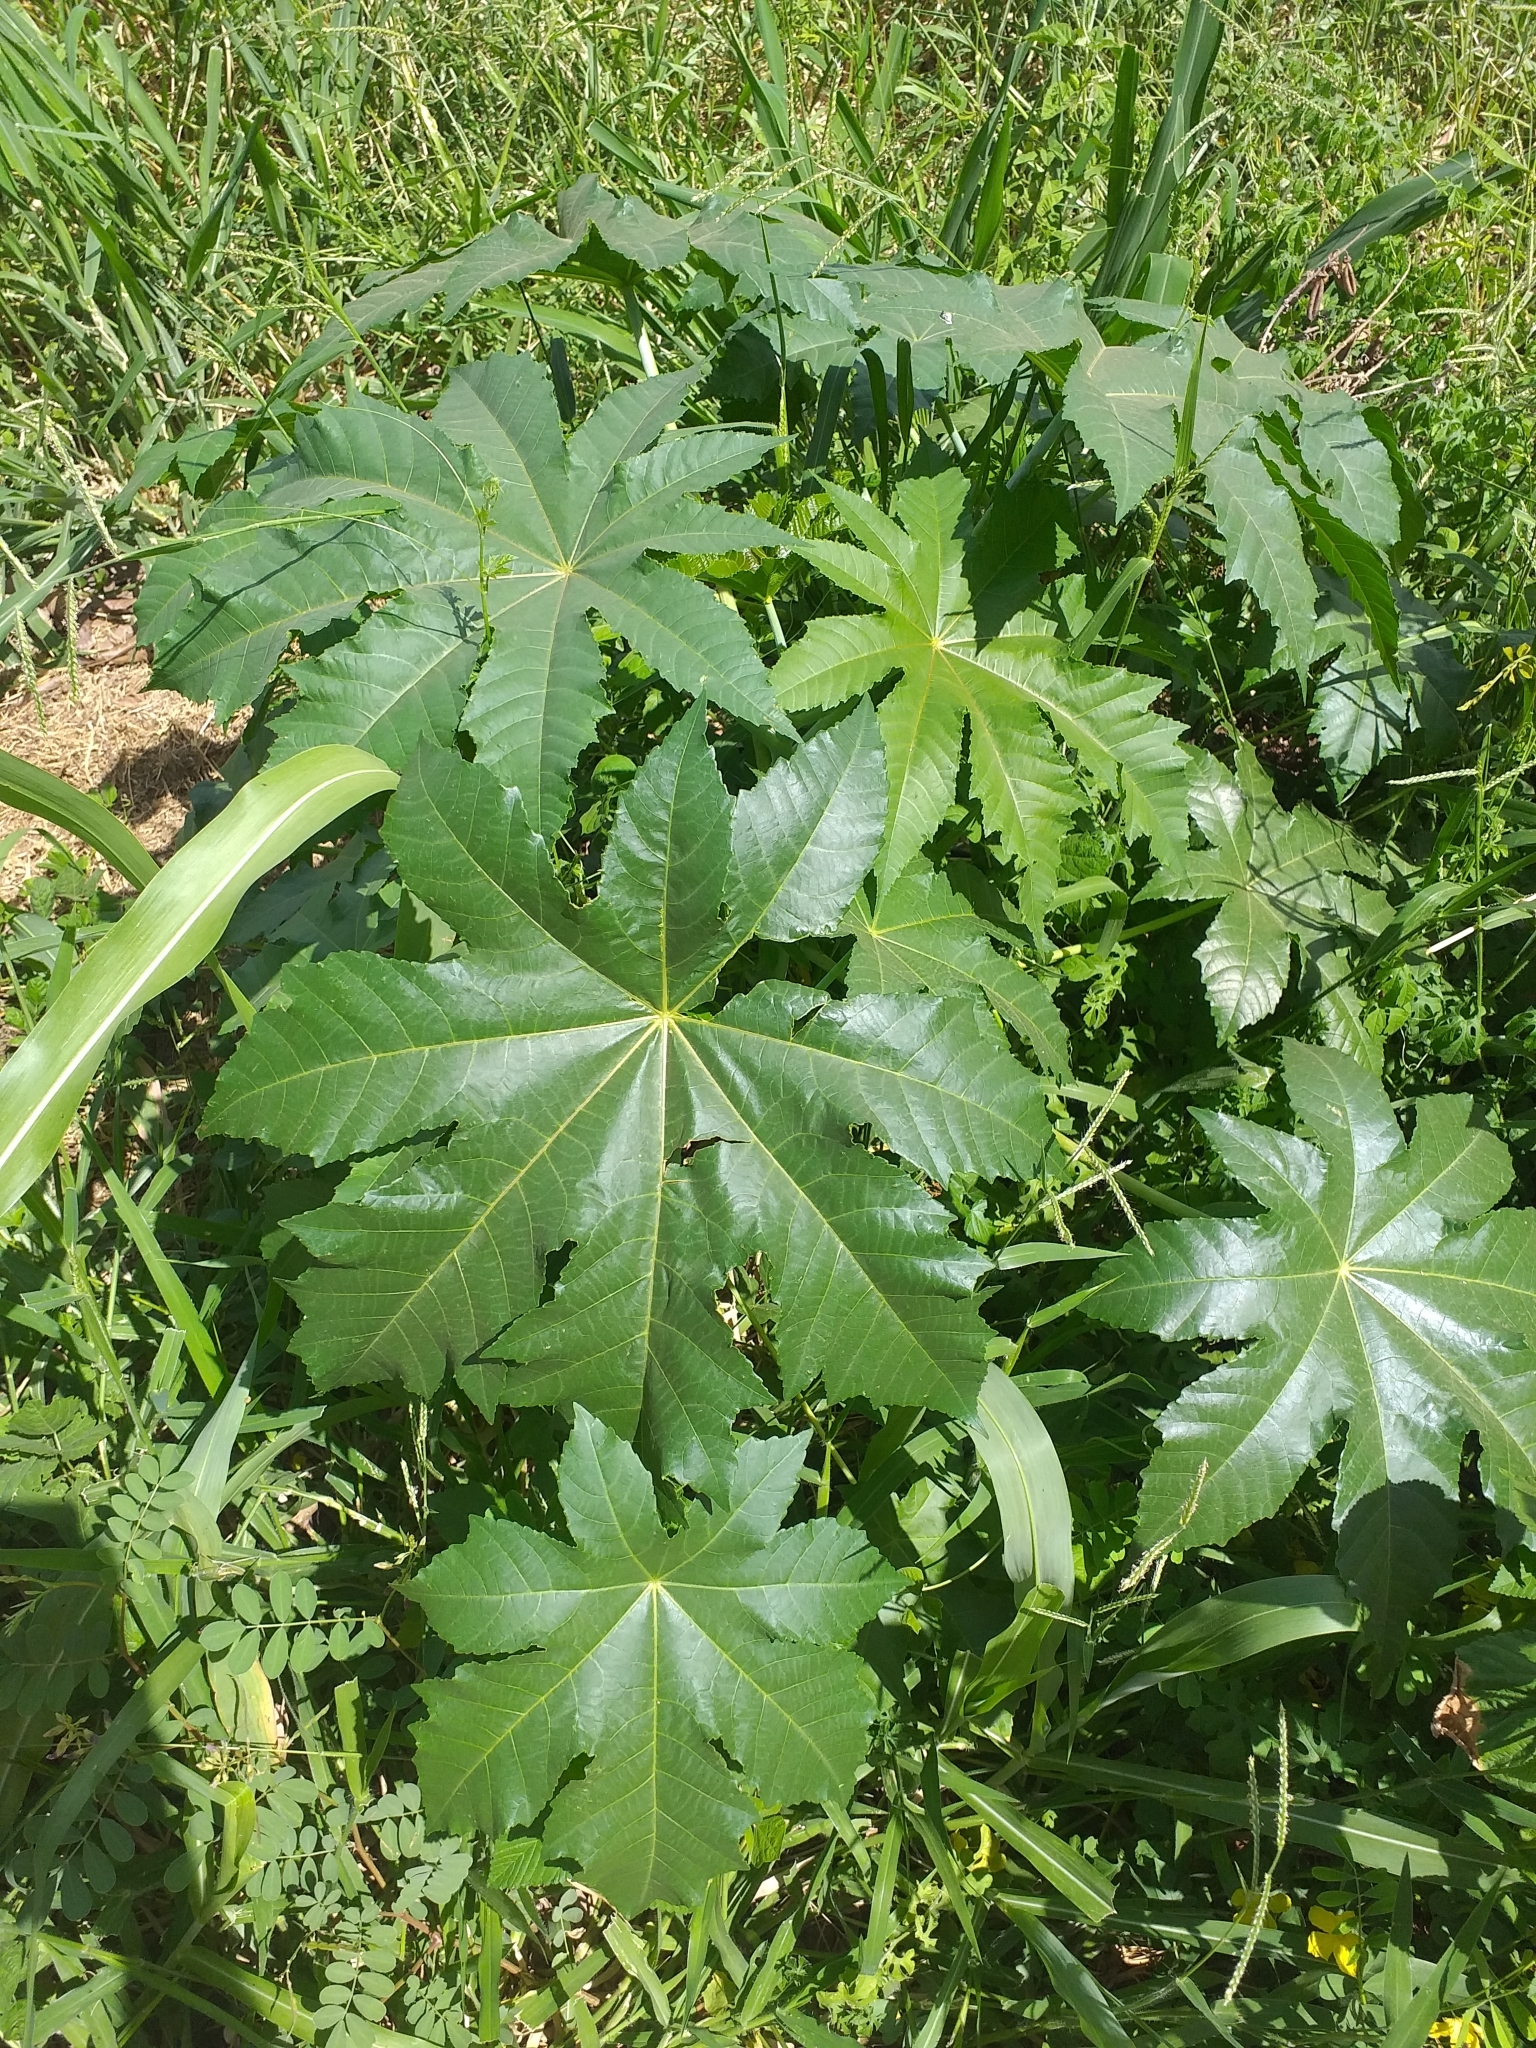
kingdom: Plantae
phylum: Tracheophyta
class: Magnoliopsida
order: Malpighiales
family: Euphorbiaceae
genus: Ricinus
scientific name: Ricinus communis
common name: Castor-oil-plant
